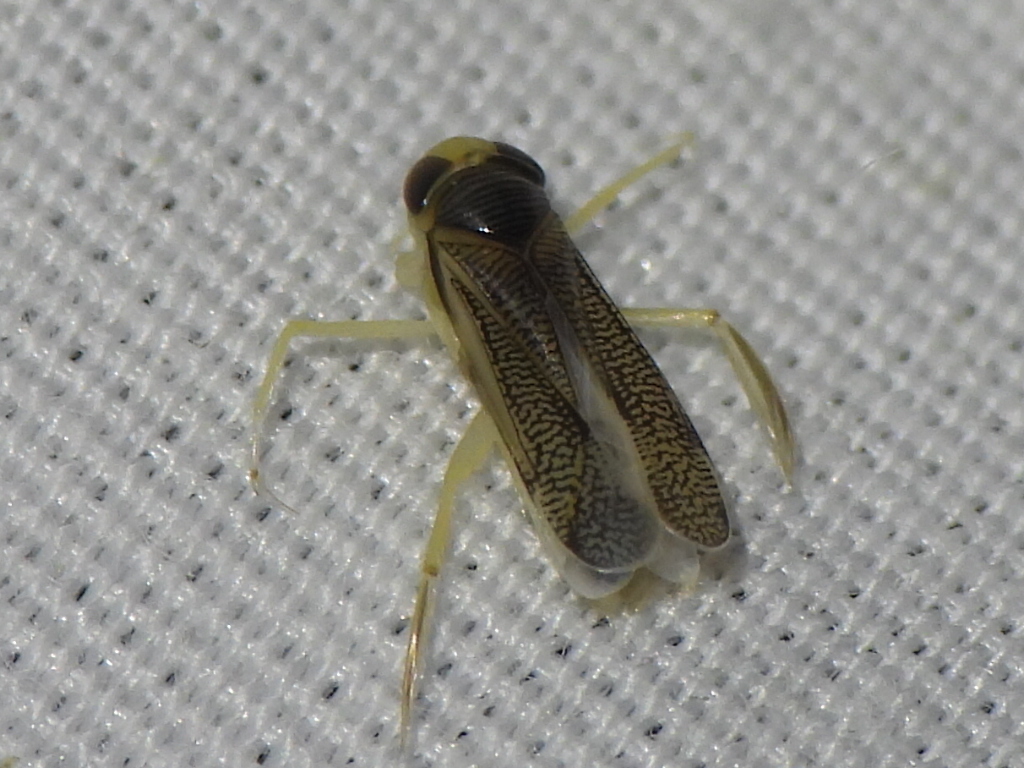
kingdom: Animalia
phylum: Arthropoda
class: Insecta
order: Hemiptera
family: Corixidae
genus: Trichocorixa
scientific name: Trichocorixa
